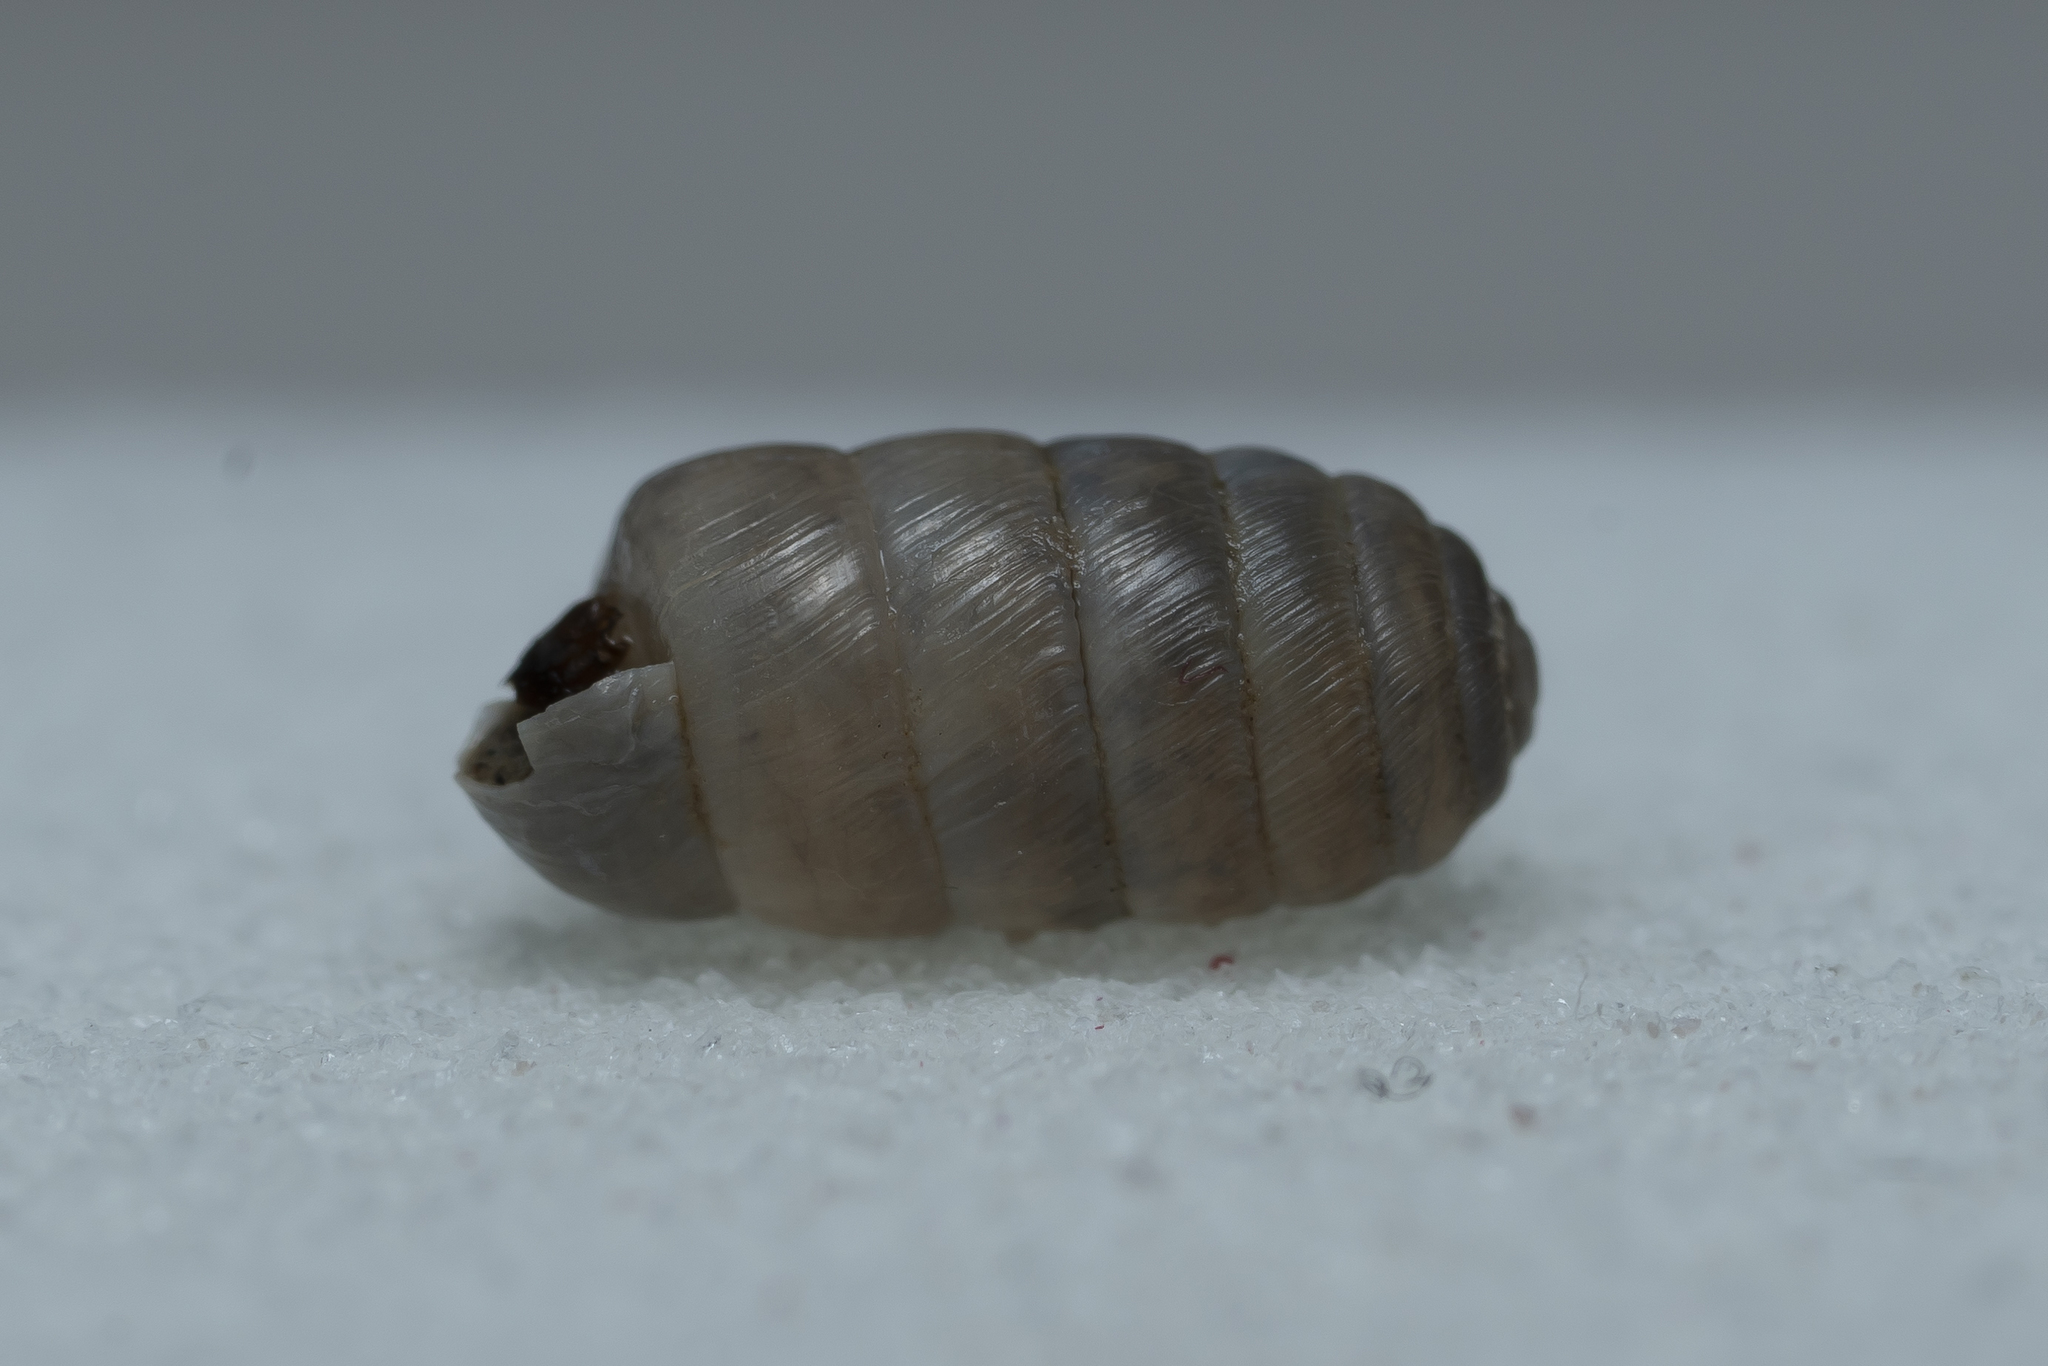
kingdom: Animalia
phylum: Mollusca
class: Gastropoda
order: Stylommatophora
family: Orculidae
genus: Orculella
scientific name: Orculella
